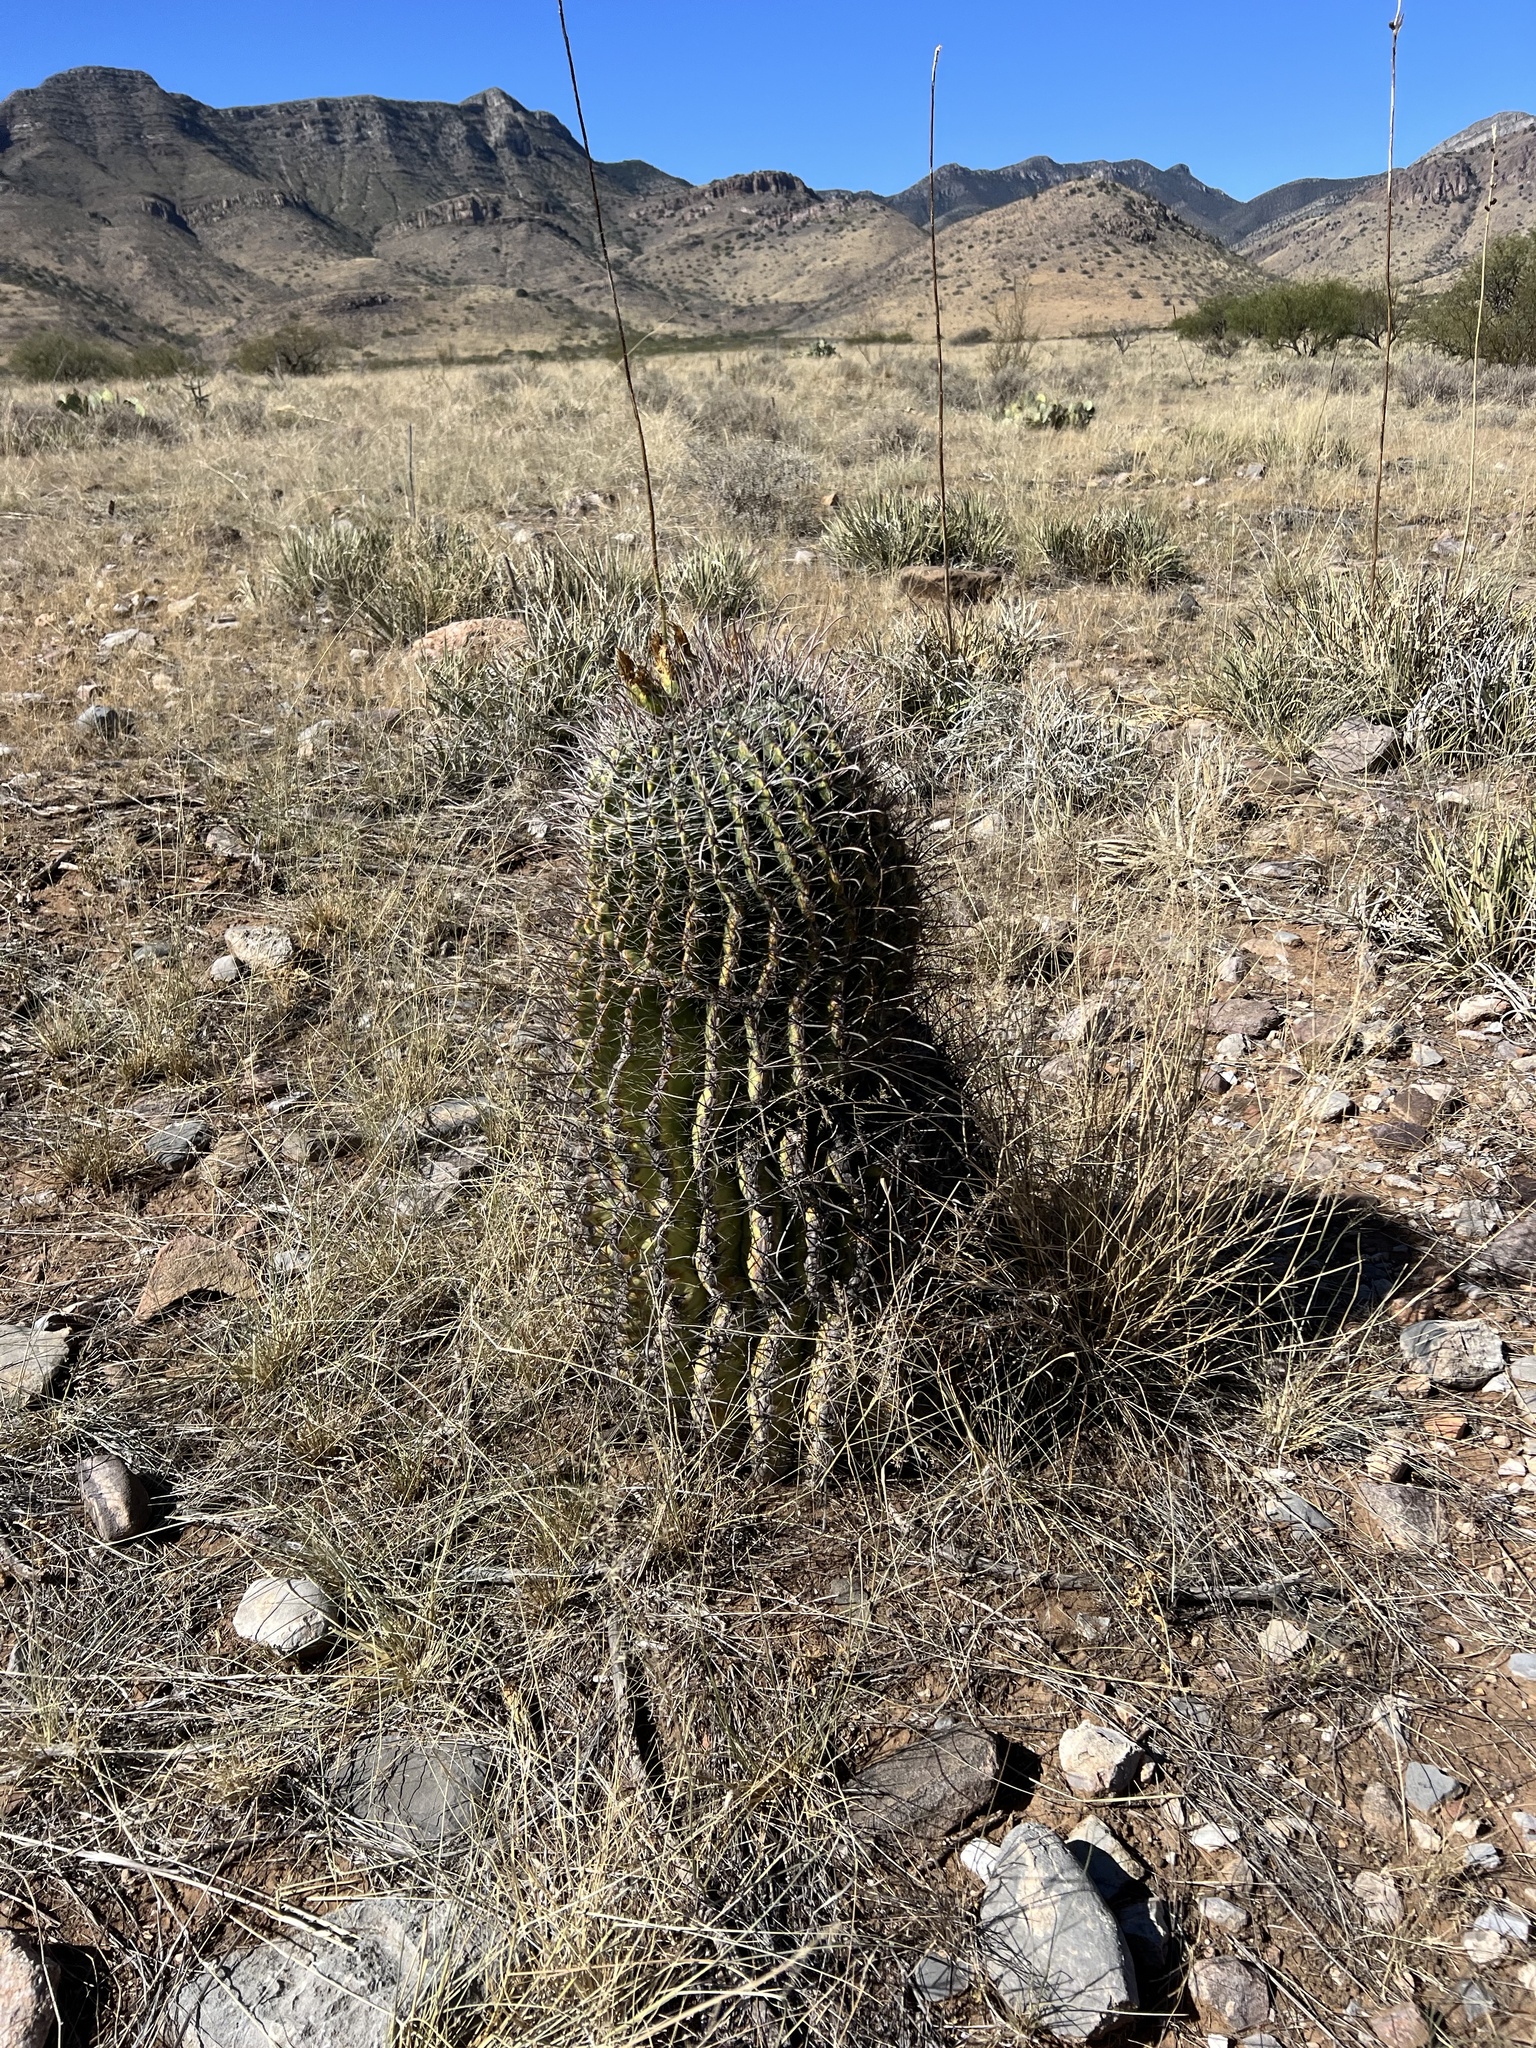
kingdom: Plantae
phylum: Tracheophyta
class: Magnoliopsida
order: Caryophyllales
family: Cactaceae
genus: Ferocactus
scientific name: Ferocactus wislizeni
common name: Candy barrel cactus
